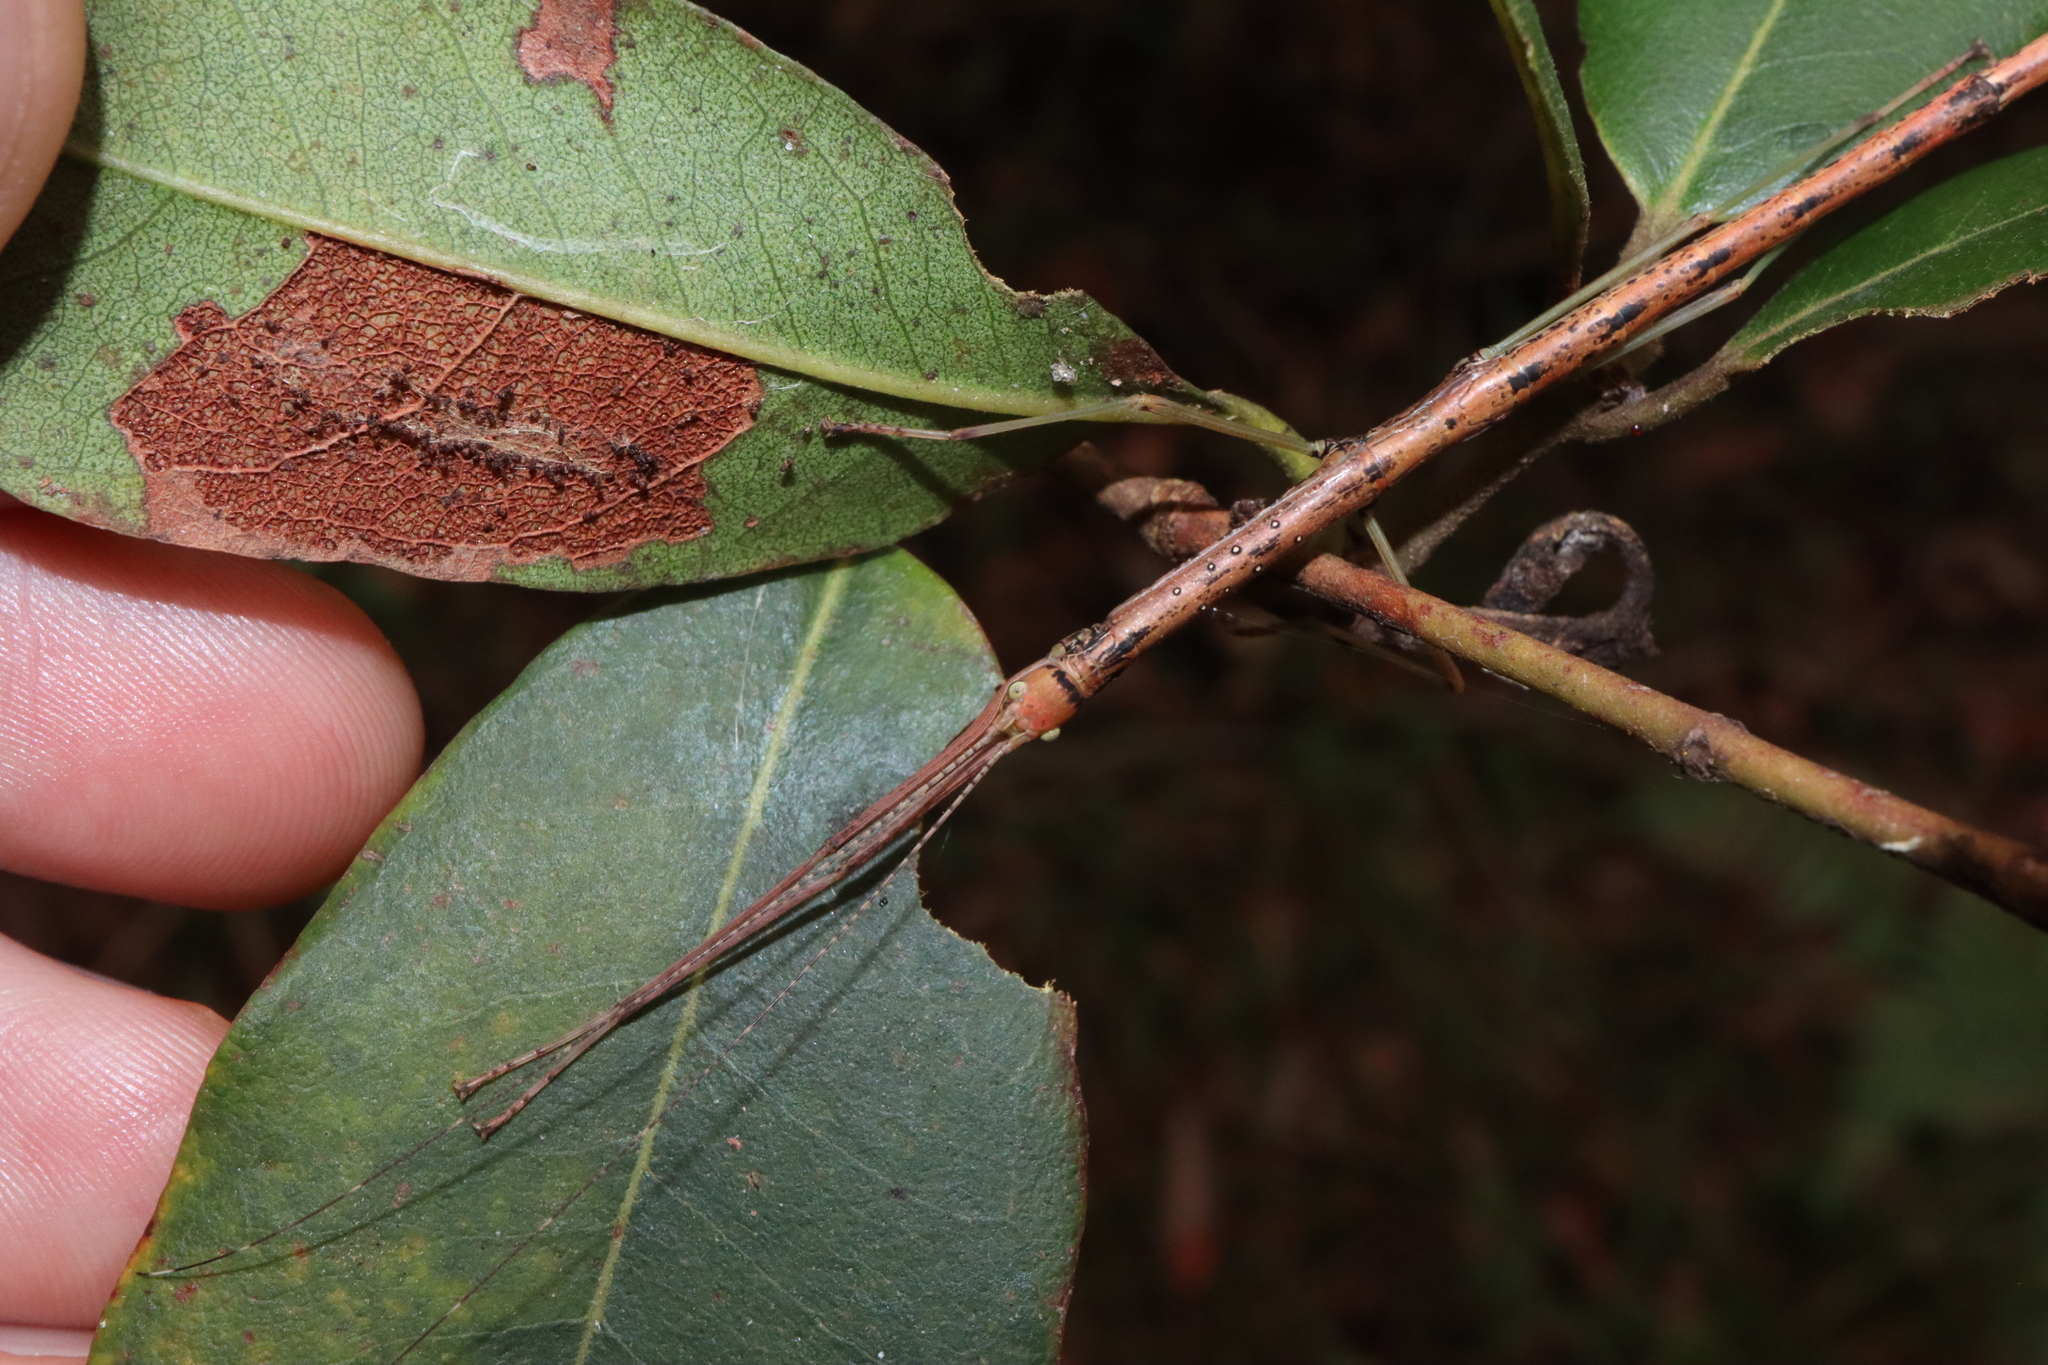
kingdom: Animalia
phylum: Arthropoda
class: Insecta
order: Phasmida
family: Lonchodidae
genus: Candovia
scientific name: Candovia strumosa
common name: Richmond river stick-insect
